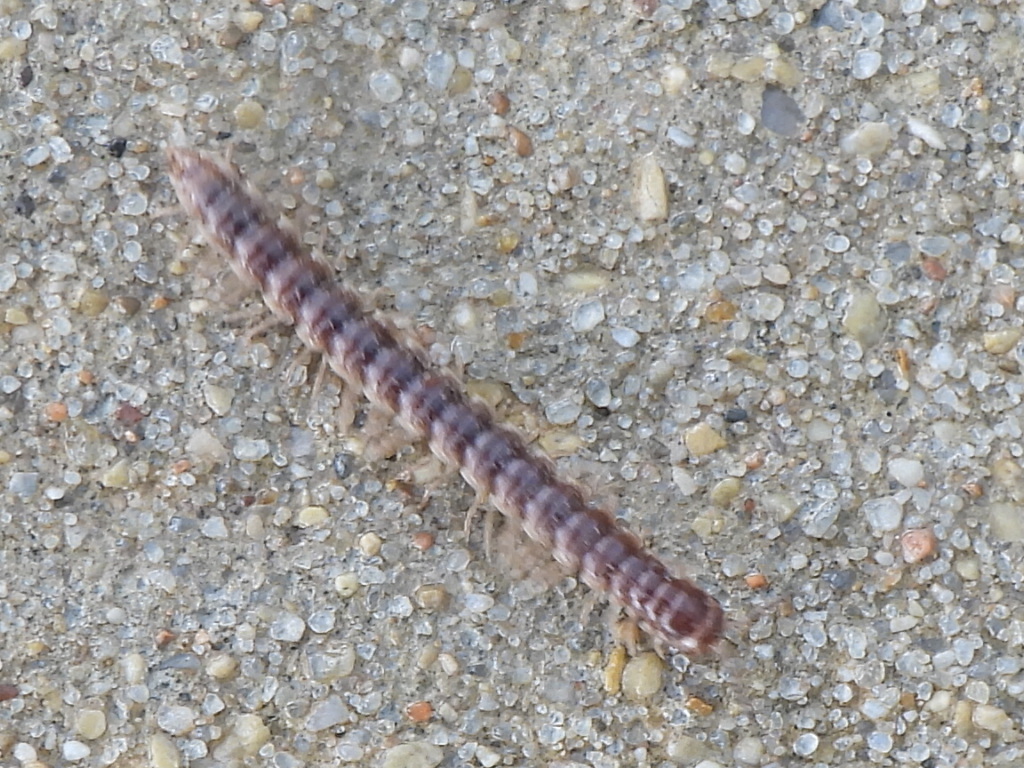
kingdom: Animalia
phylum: Arthropoda
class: Diplopoda
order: Polydesmida
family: Paradoxosomatidae
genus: Oxidus
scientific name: Oxidus gracilis
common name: Greenhouse millipede
